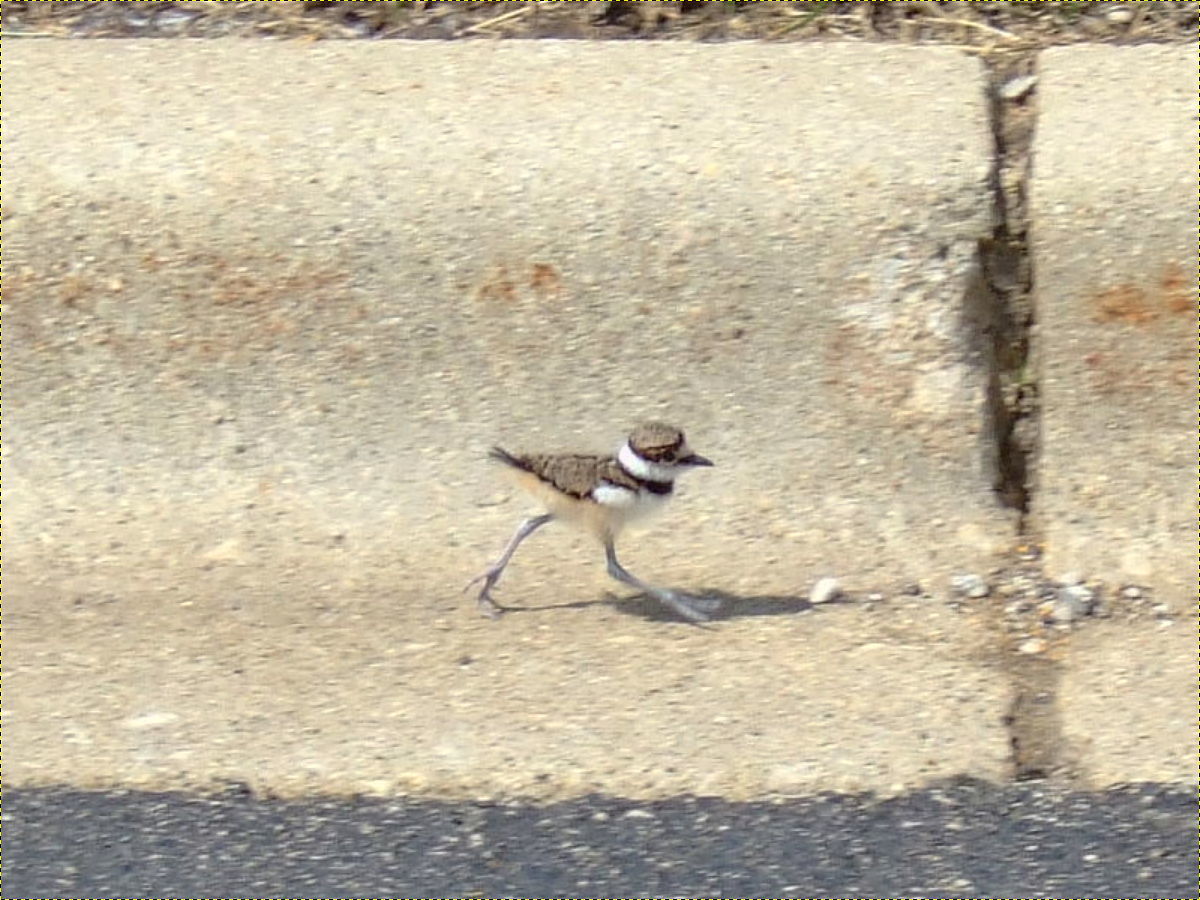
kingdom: Animalia
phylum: Chordata
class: Aves
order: Charadriiformes
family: Charadriidae
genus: Charadrius
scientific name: Charadrius vociferus
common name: Killdeer
